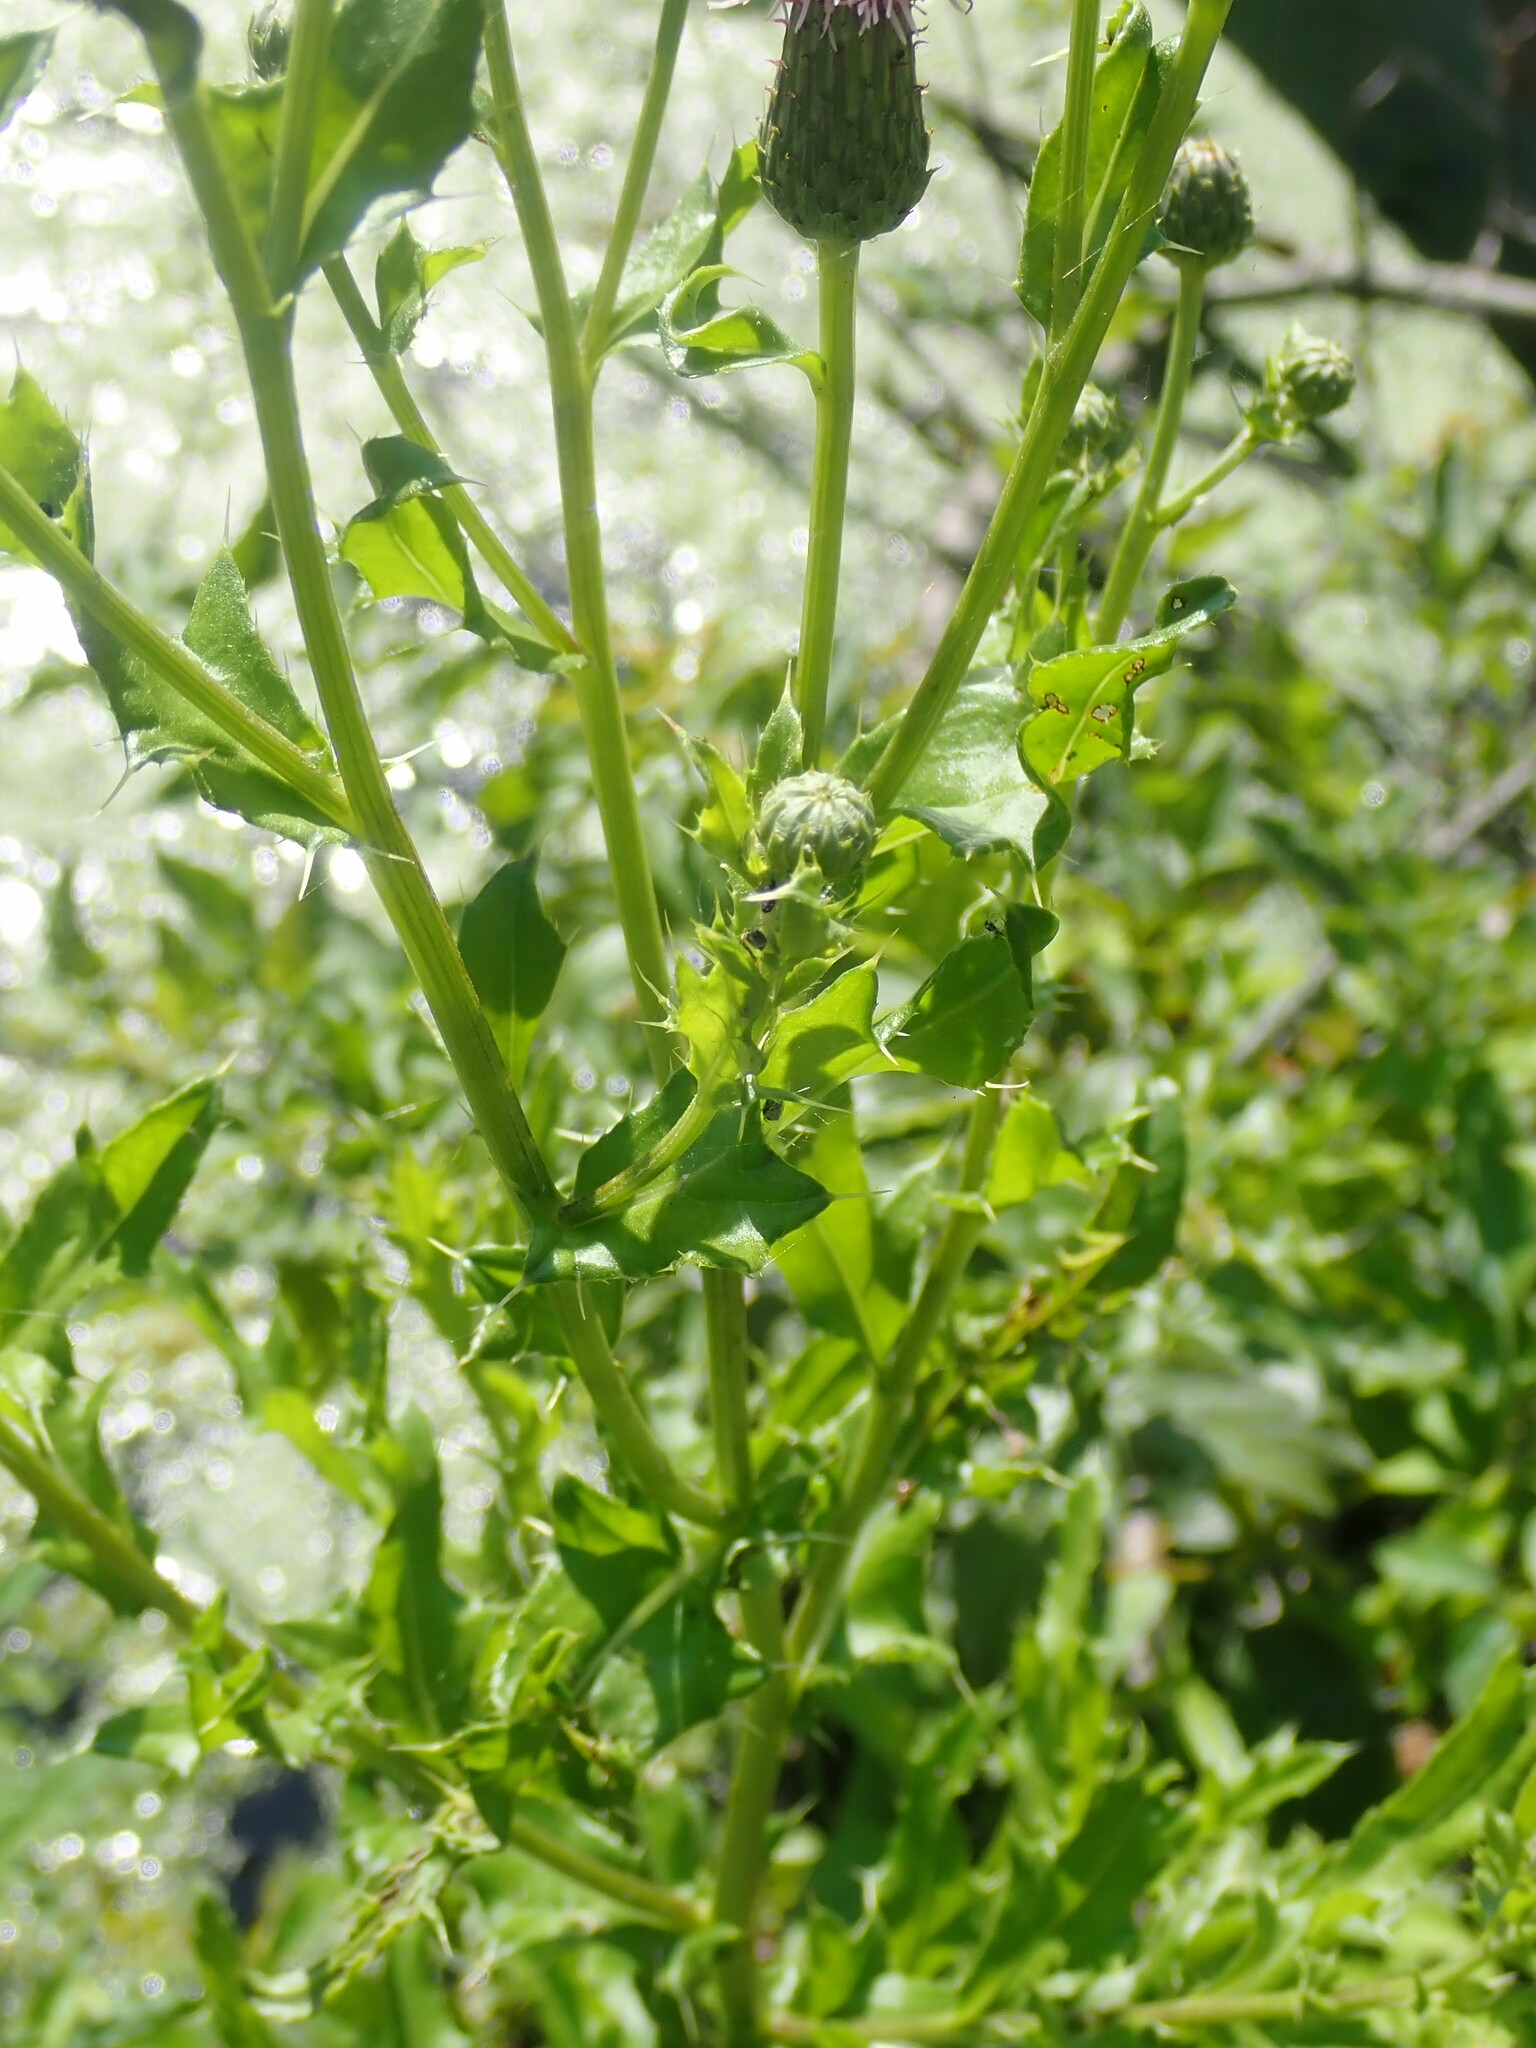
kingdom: Plantae
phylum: Tracheophyta
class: Magnoliopsida
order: Asterales
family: Asteraceae
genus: Cirsium
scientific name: Cirsium arvense
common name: Creeping thistle
